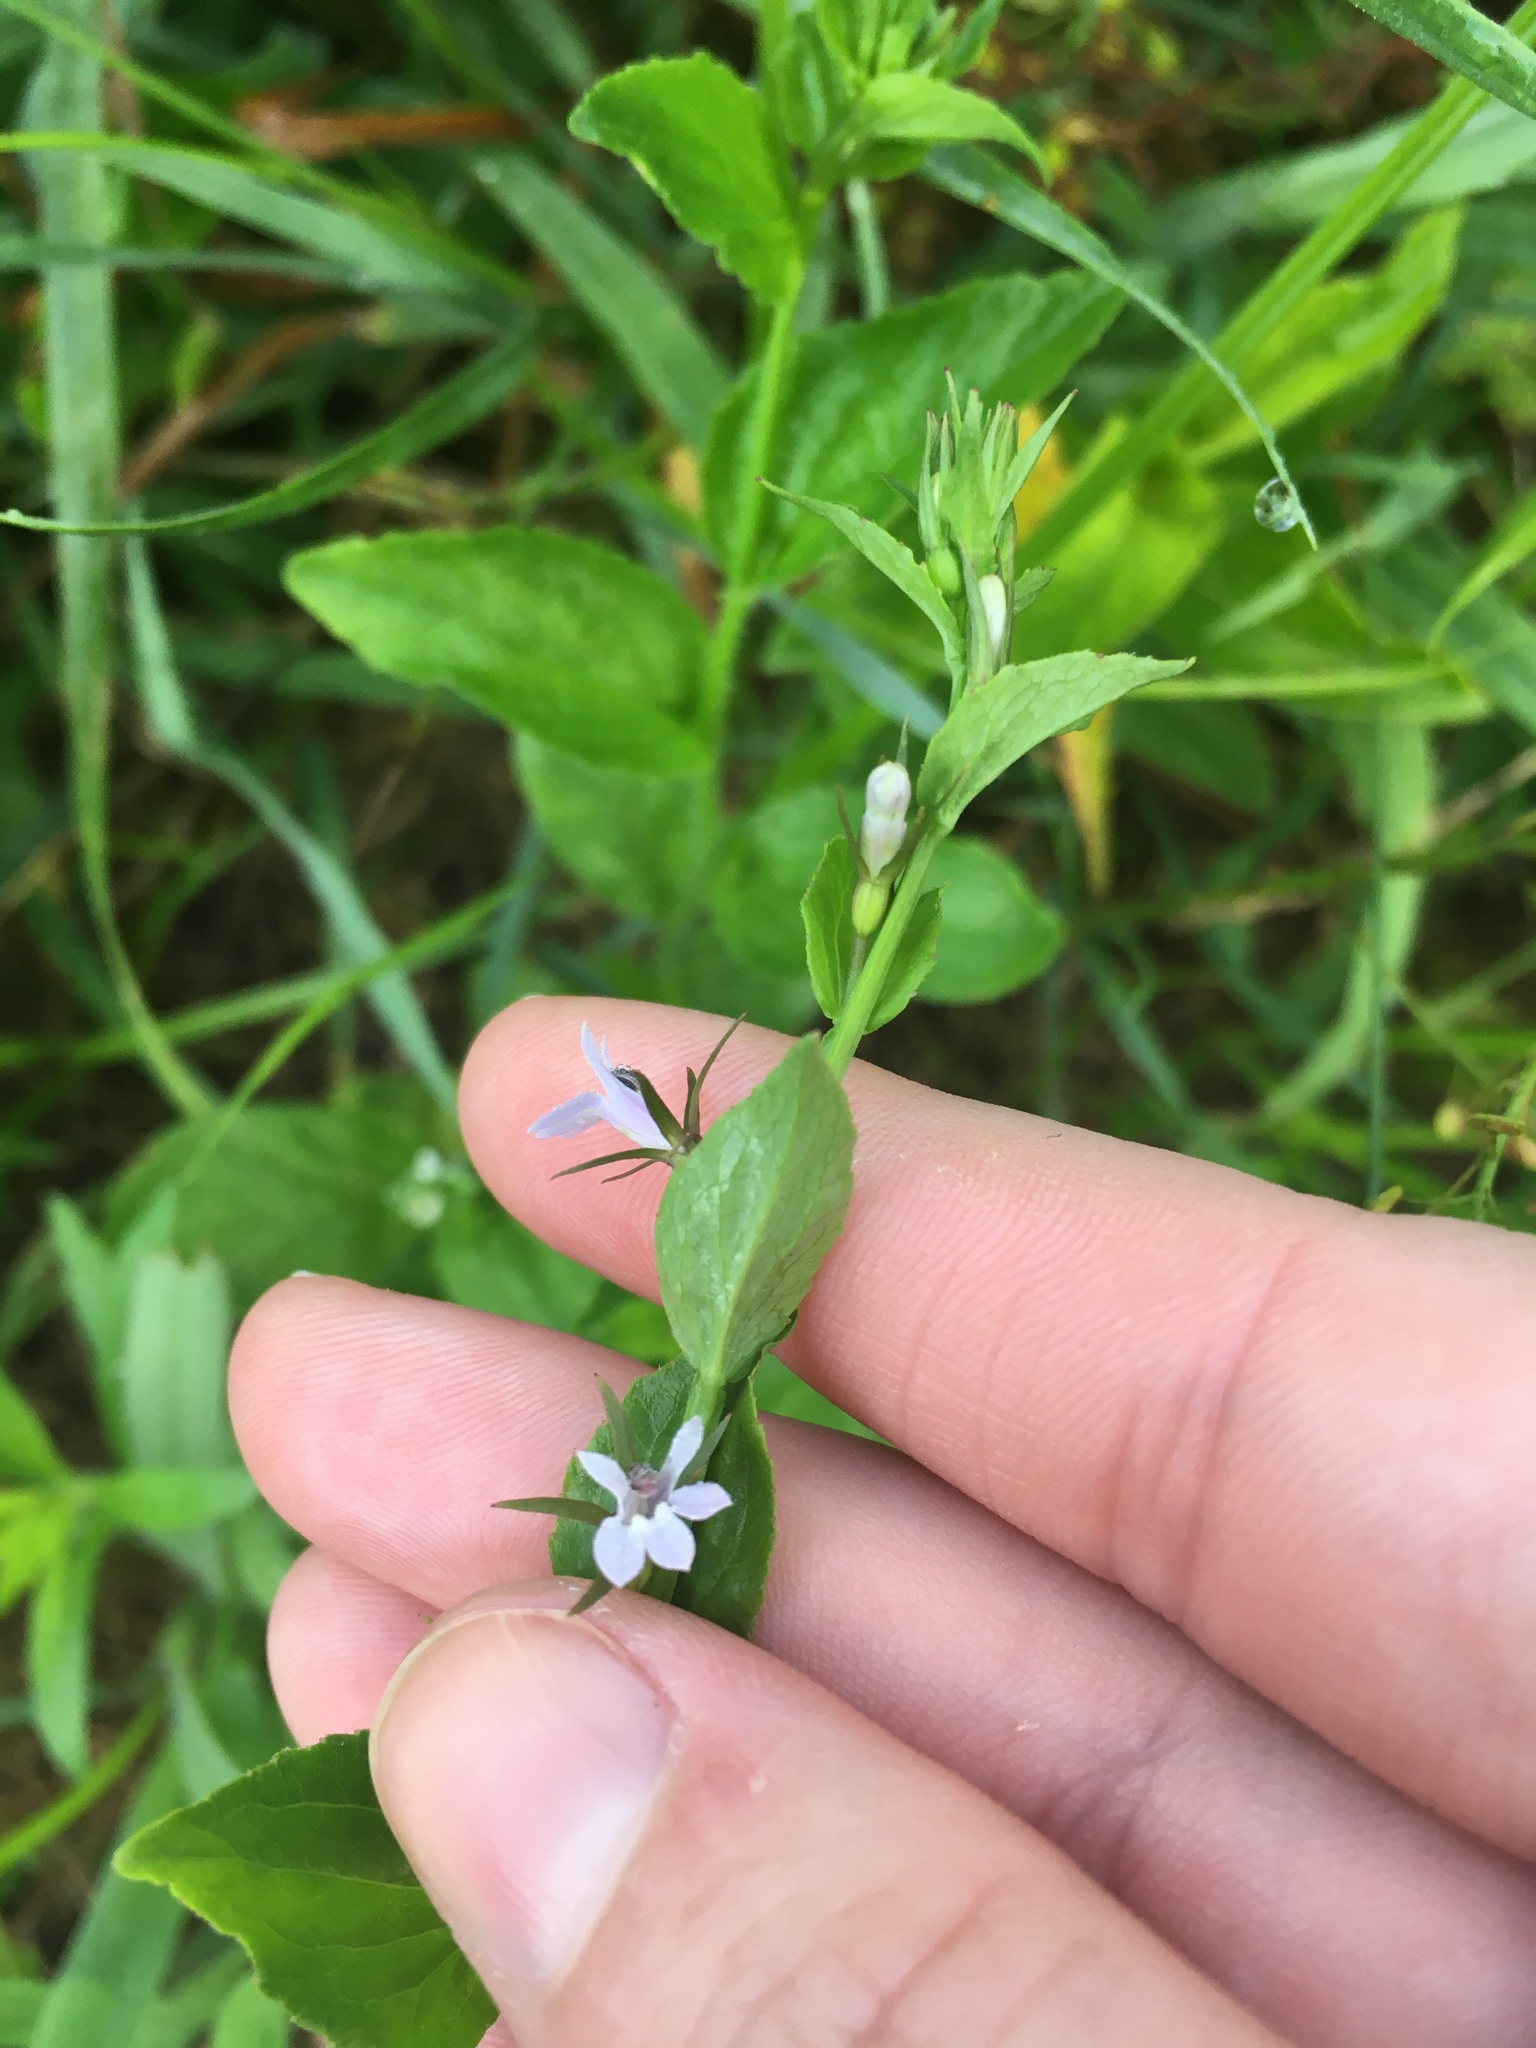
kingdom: Plantae
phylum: Tracheophyta
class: Magnoliopsida
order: Asterales
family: Campanulaceae
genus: Lobelia
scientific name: Lobelia inflata
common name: Indian tobacco
